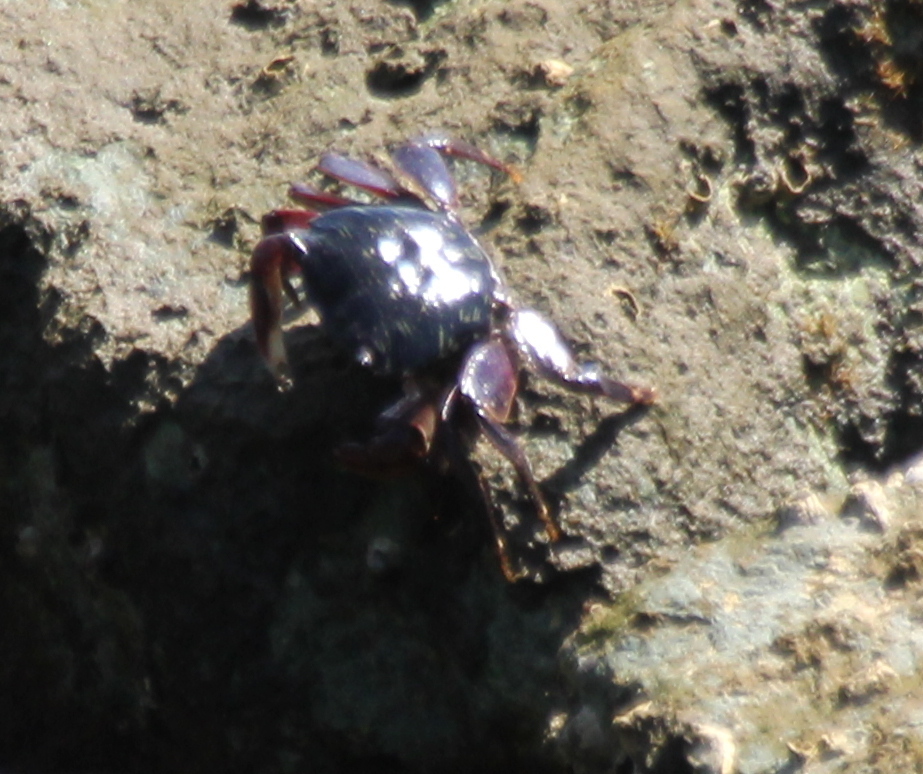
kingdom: Animalia
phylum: Arthropoda
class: Malacostraca
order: Decapoda
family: Grapsidae
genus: Pachygrapsus
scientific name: Pachygrapsus crassipes
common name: Striped shore crab
